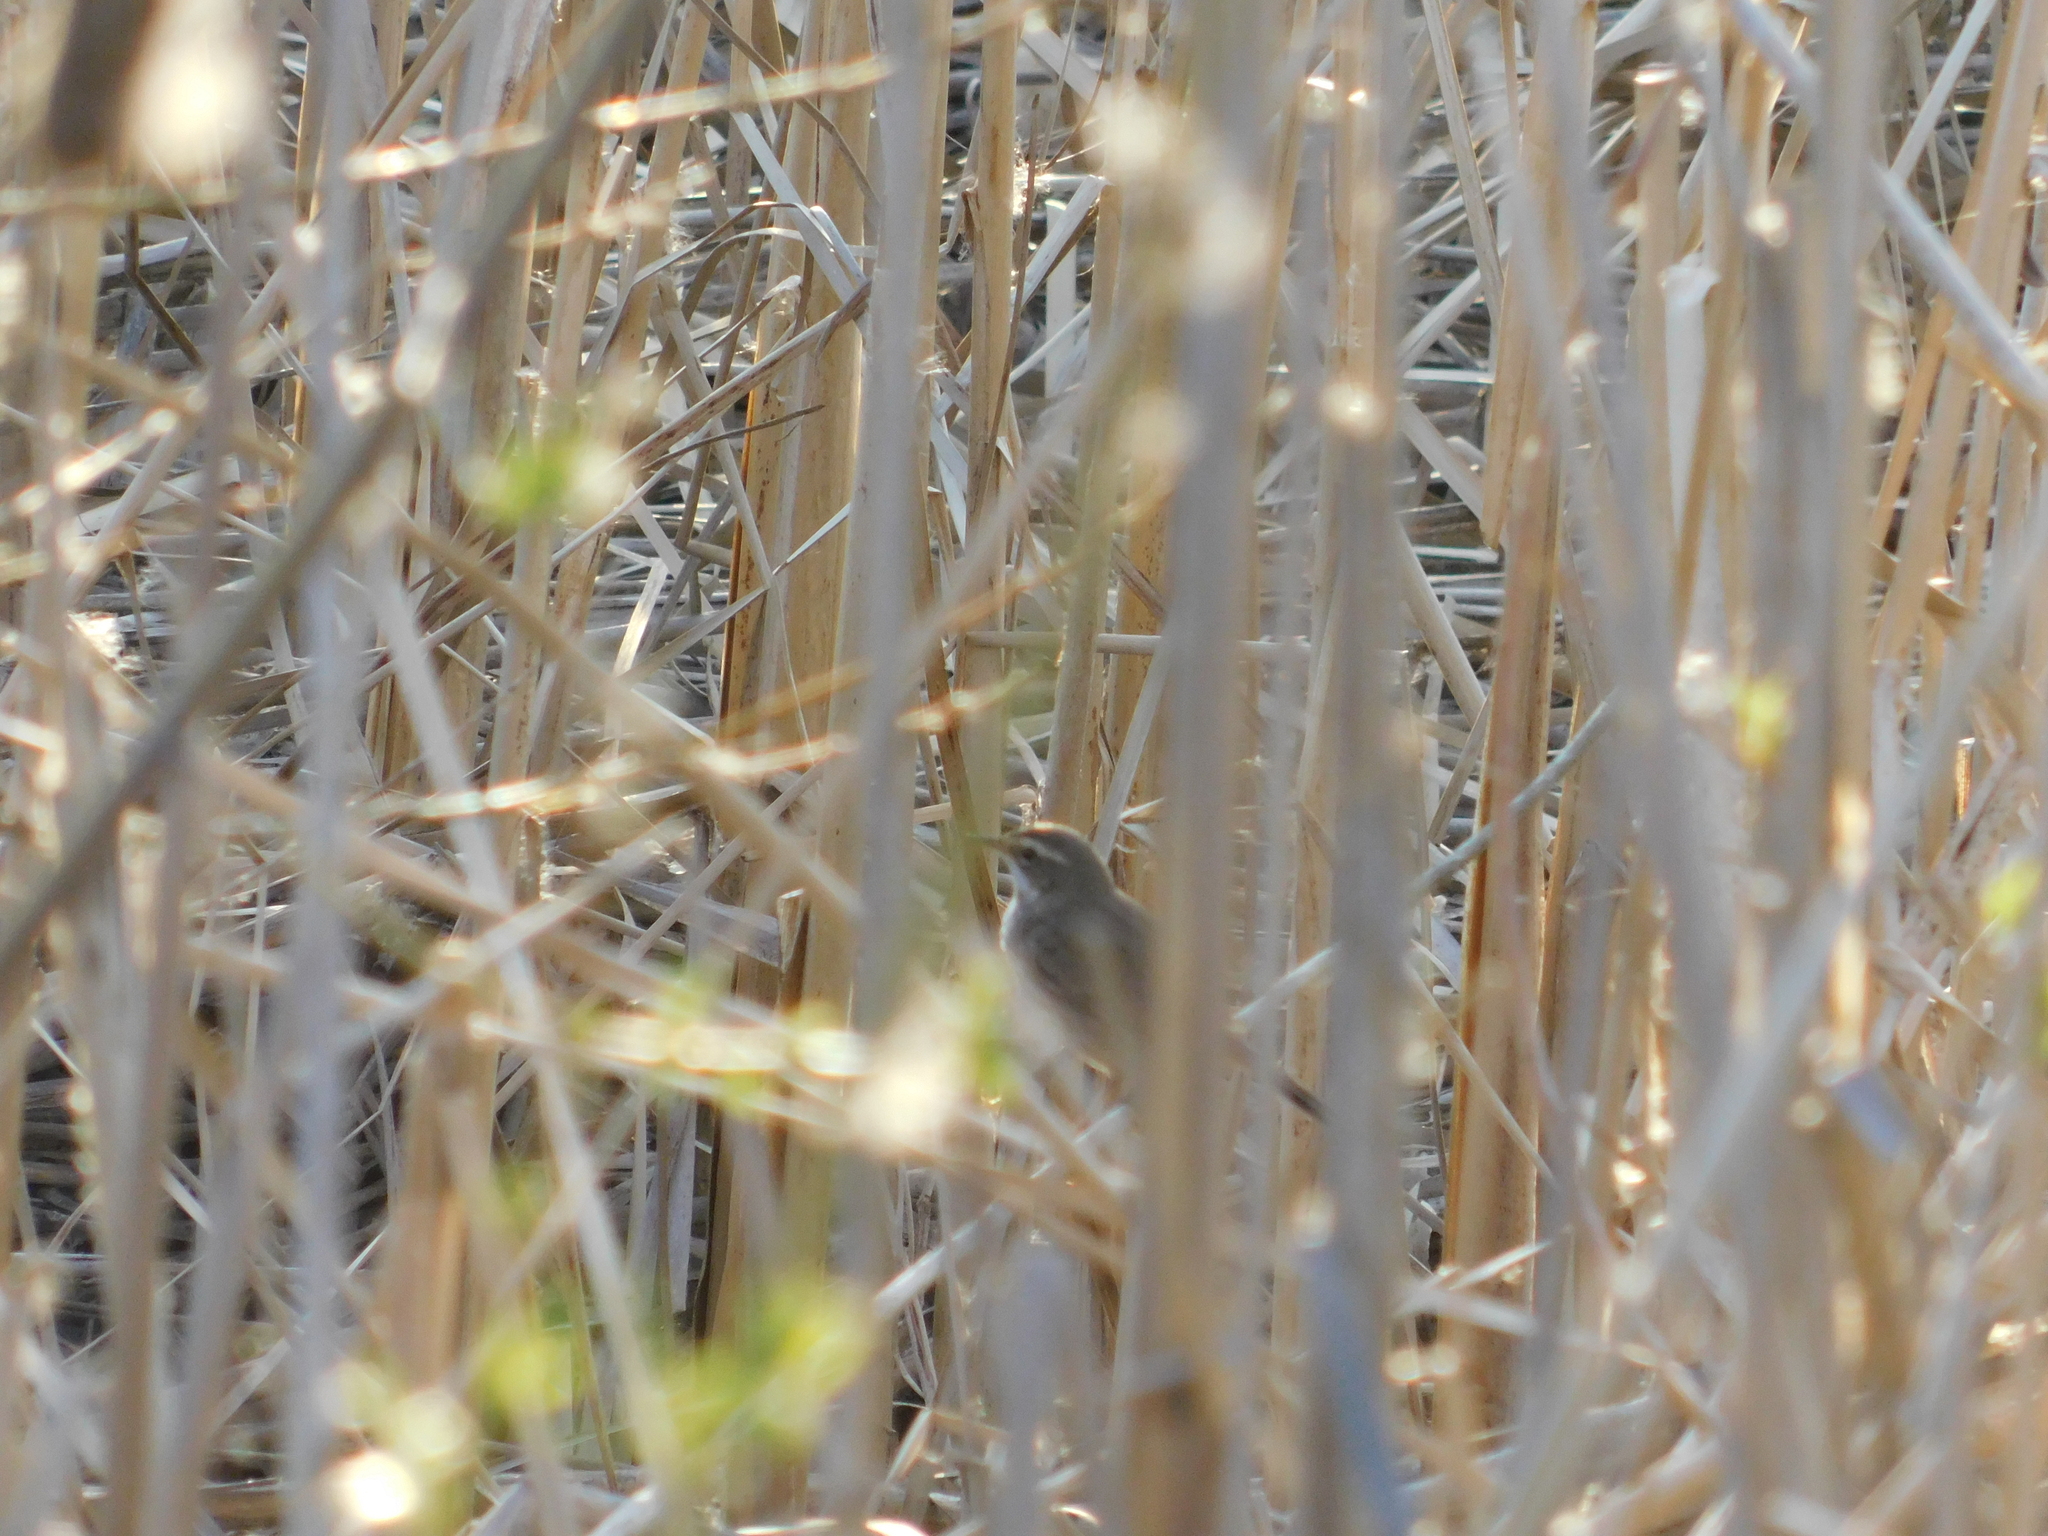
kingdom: Animalia
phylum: Chordata
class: Aves
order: Passeriformes
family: Muscicapidae
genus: Luscinia
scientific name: Luscinia svecica
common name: Bluethroat
